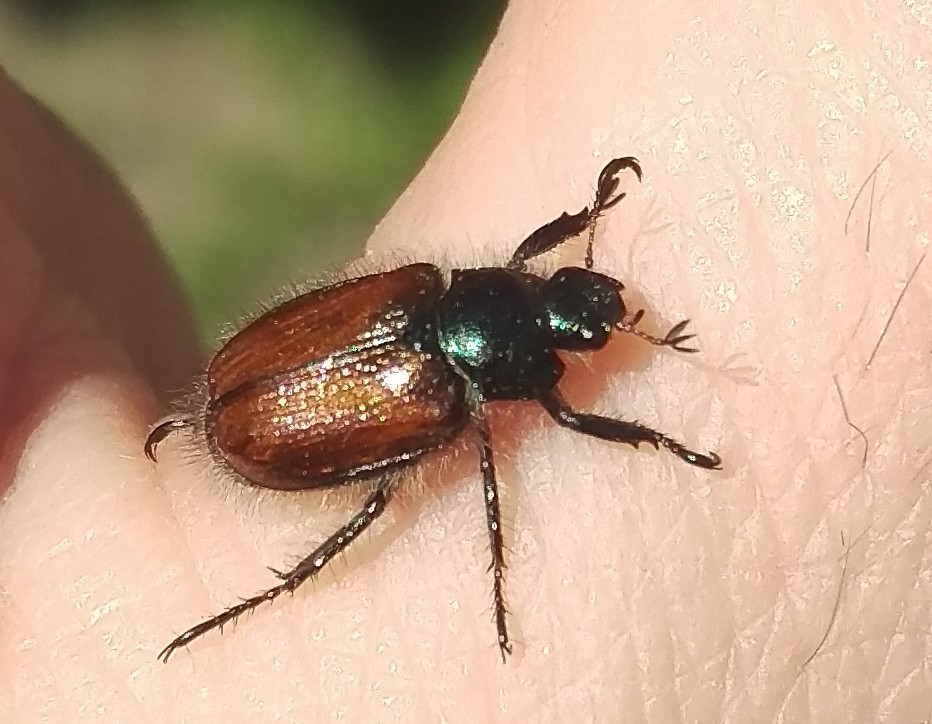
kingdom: Animalia
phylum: Arthropoda
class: Insecta
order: Coleoptera
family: Scarabaeidae
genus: Phyllopertha
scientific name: Phyllopertha horticola
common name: Garden chafer
